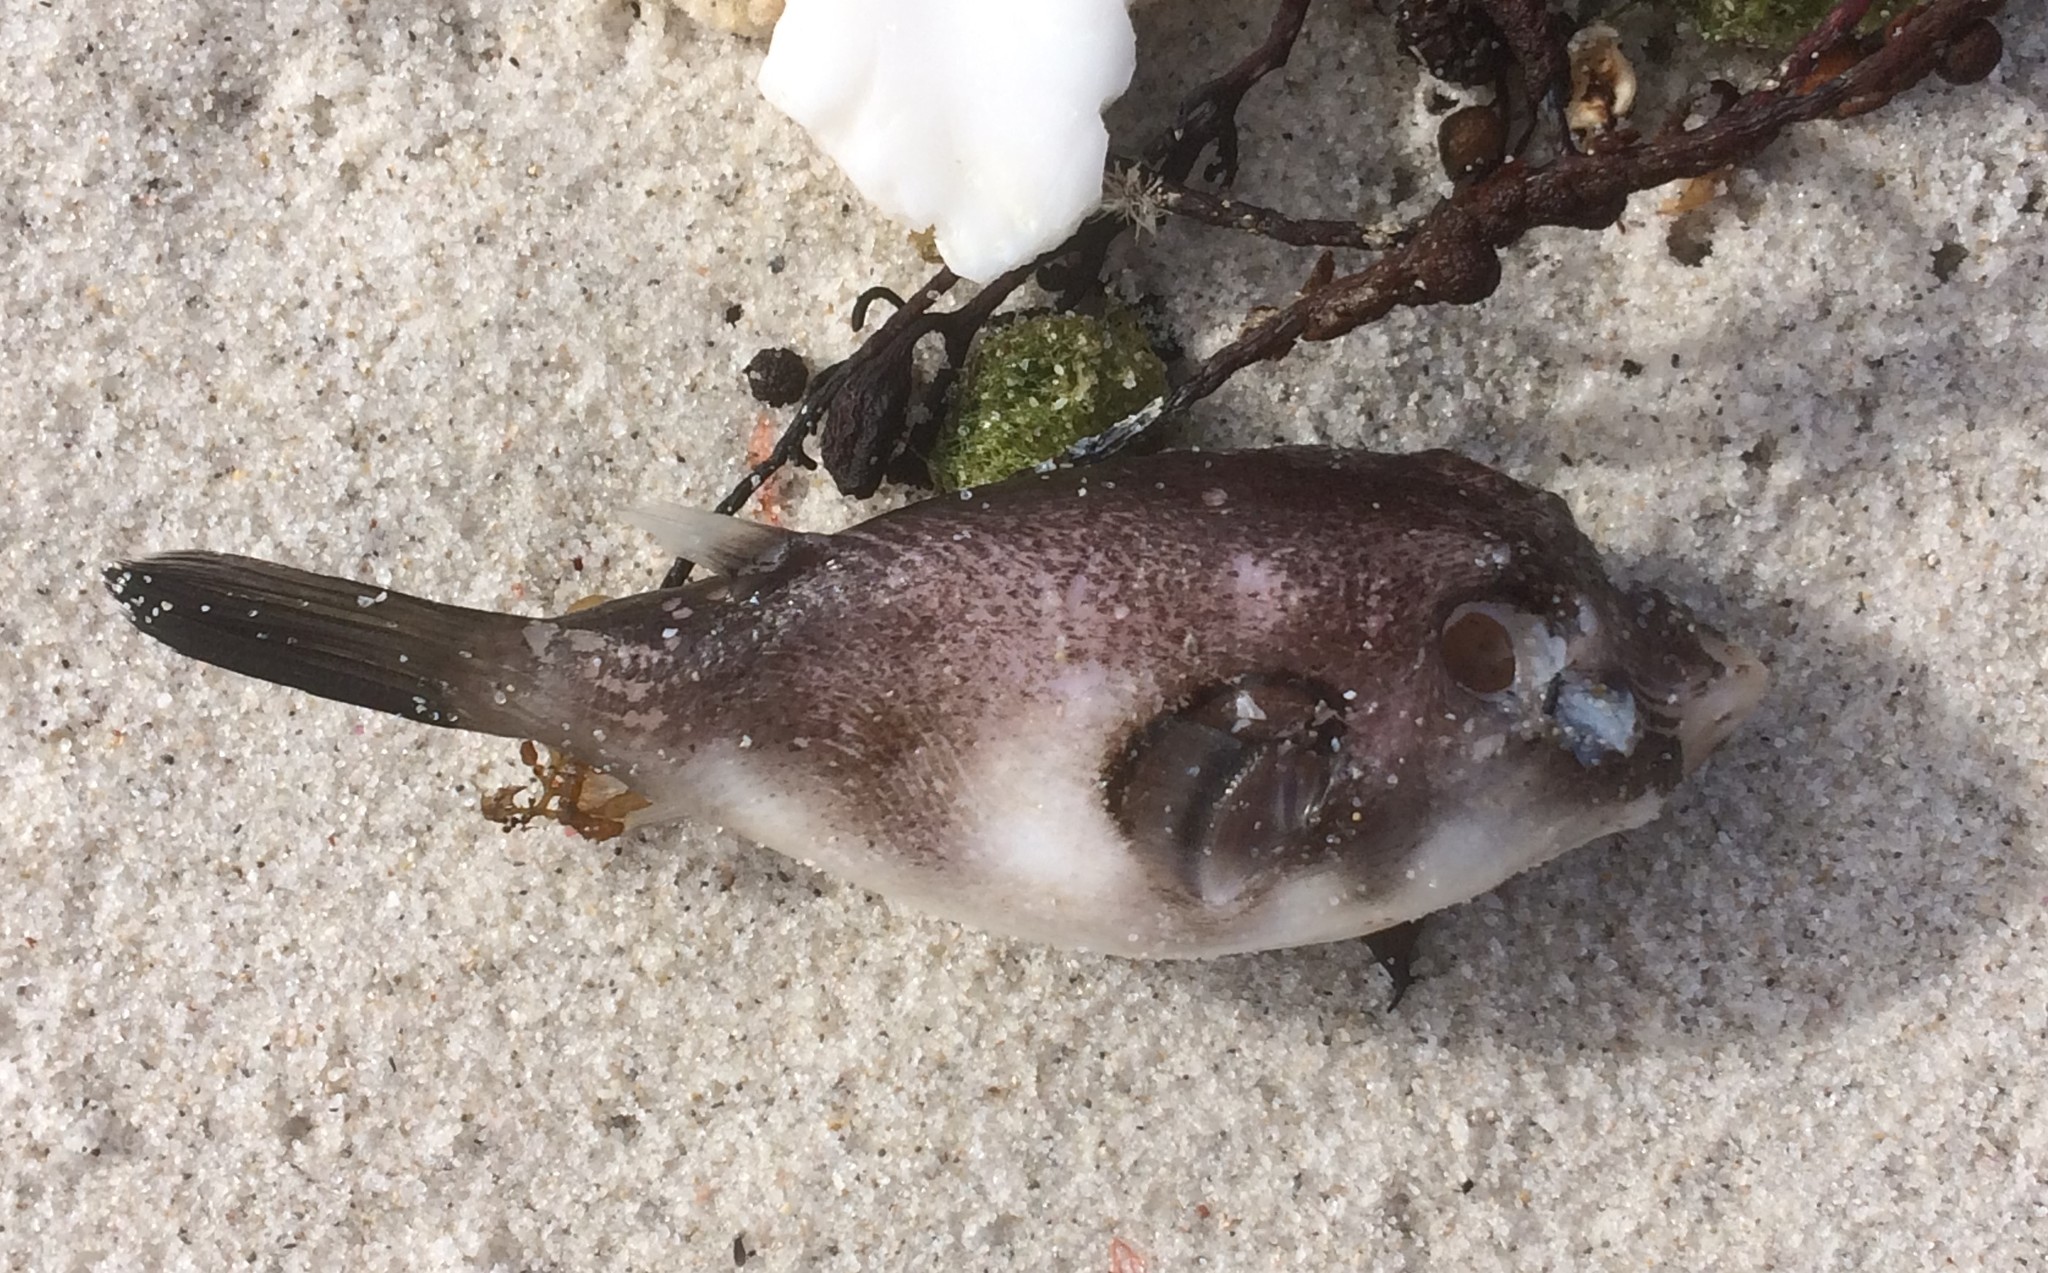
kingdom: Animalia
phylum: Chordata
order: Tetraodontiformes
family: Tetraodontidae
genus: Omegophora
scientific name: Omegophora armilla
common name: Ringed pufferfish
